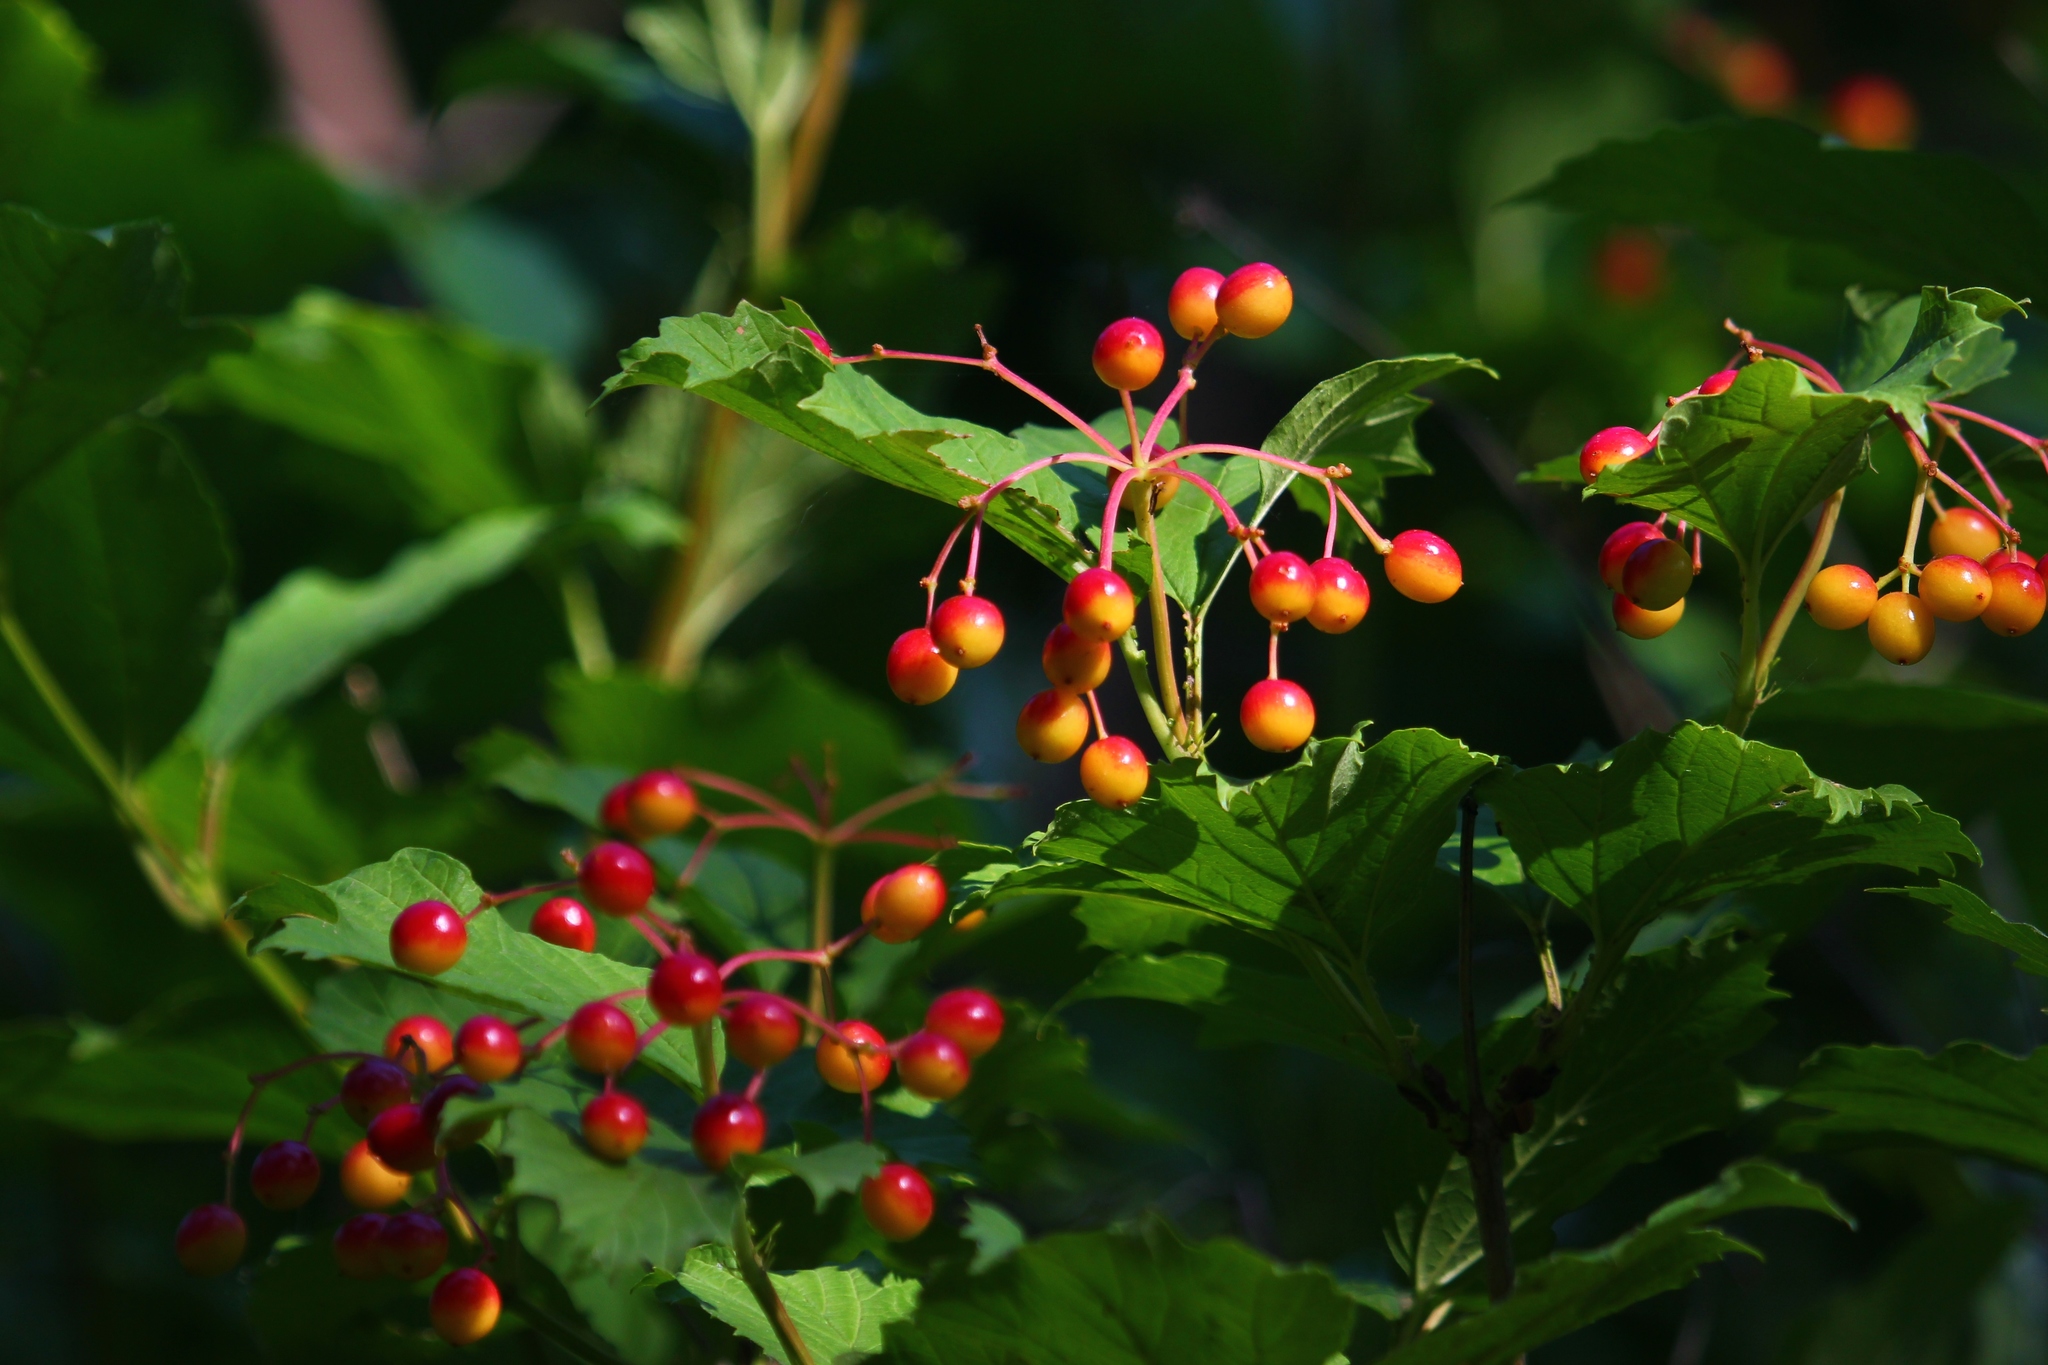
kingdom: Plantae
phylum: Tracheophyta
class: Magnoliopsida
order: Dipsacales
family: Viburnaceae
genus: Viburnum
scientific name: Viburnum opulus
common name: Guelder-rose
